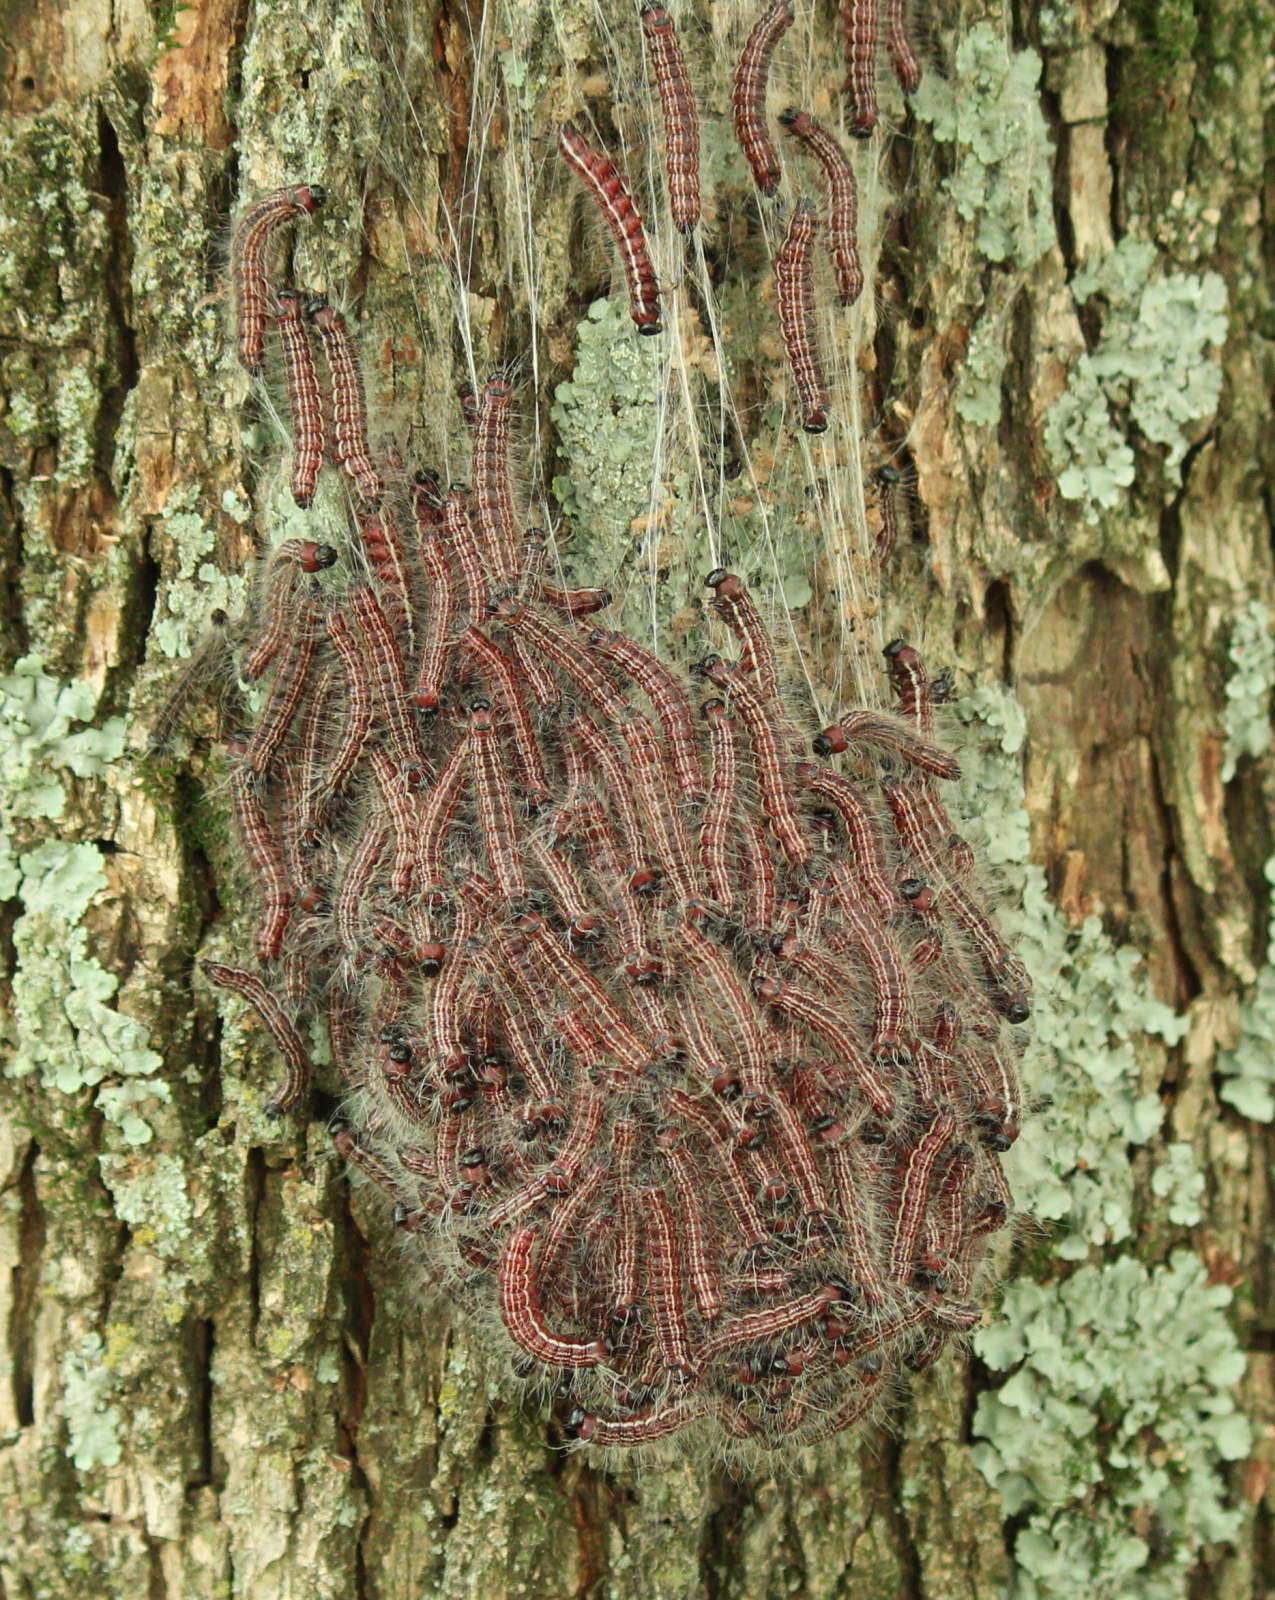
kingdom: Animalia
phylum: Arthropoda
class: Insecta
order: Lepidoptera
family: Notodontidae
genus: Datana
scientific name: Datana integerrima
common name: Walnut caterpillar
